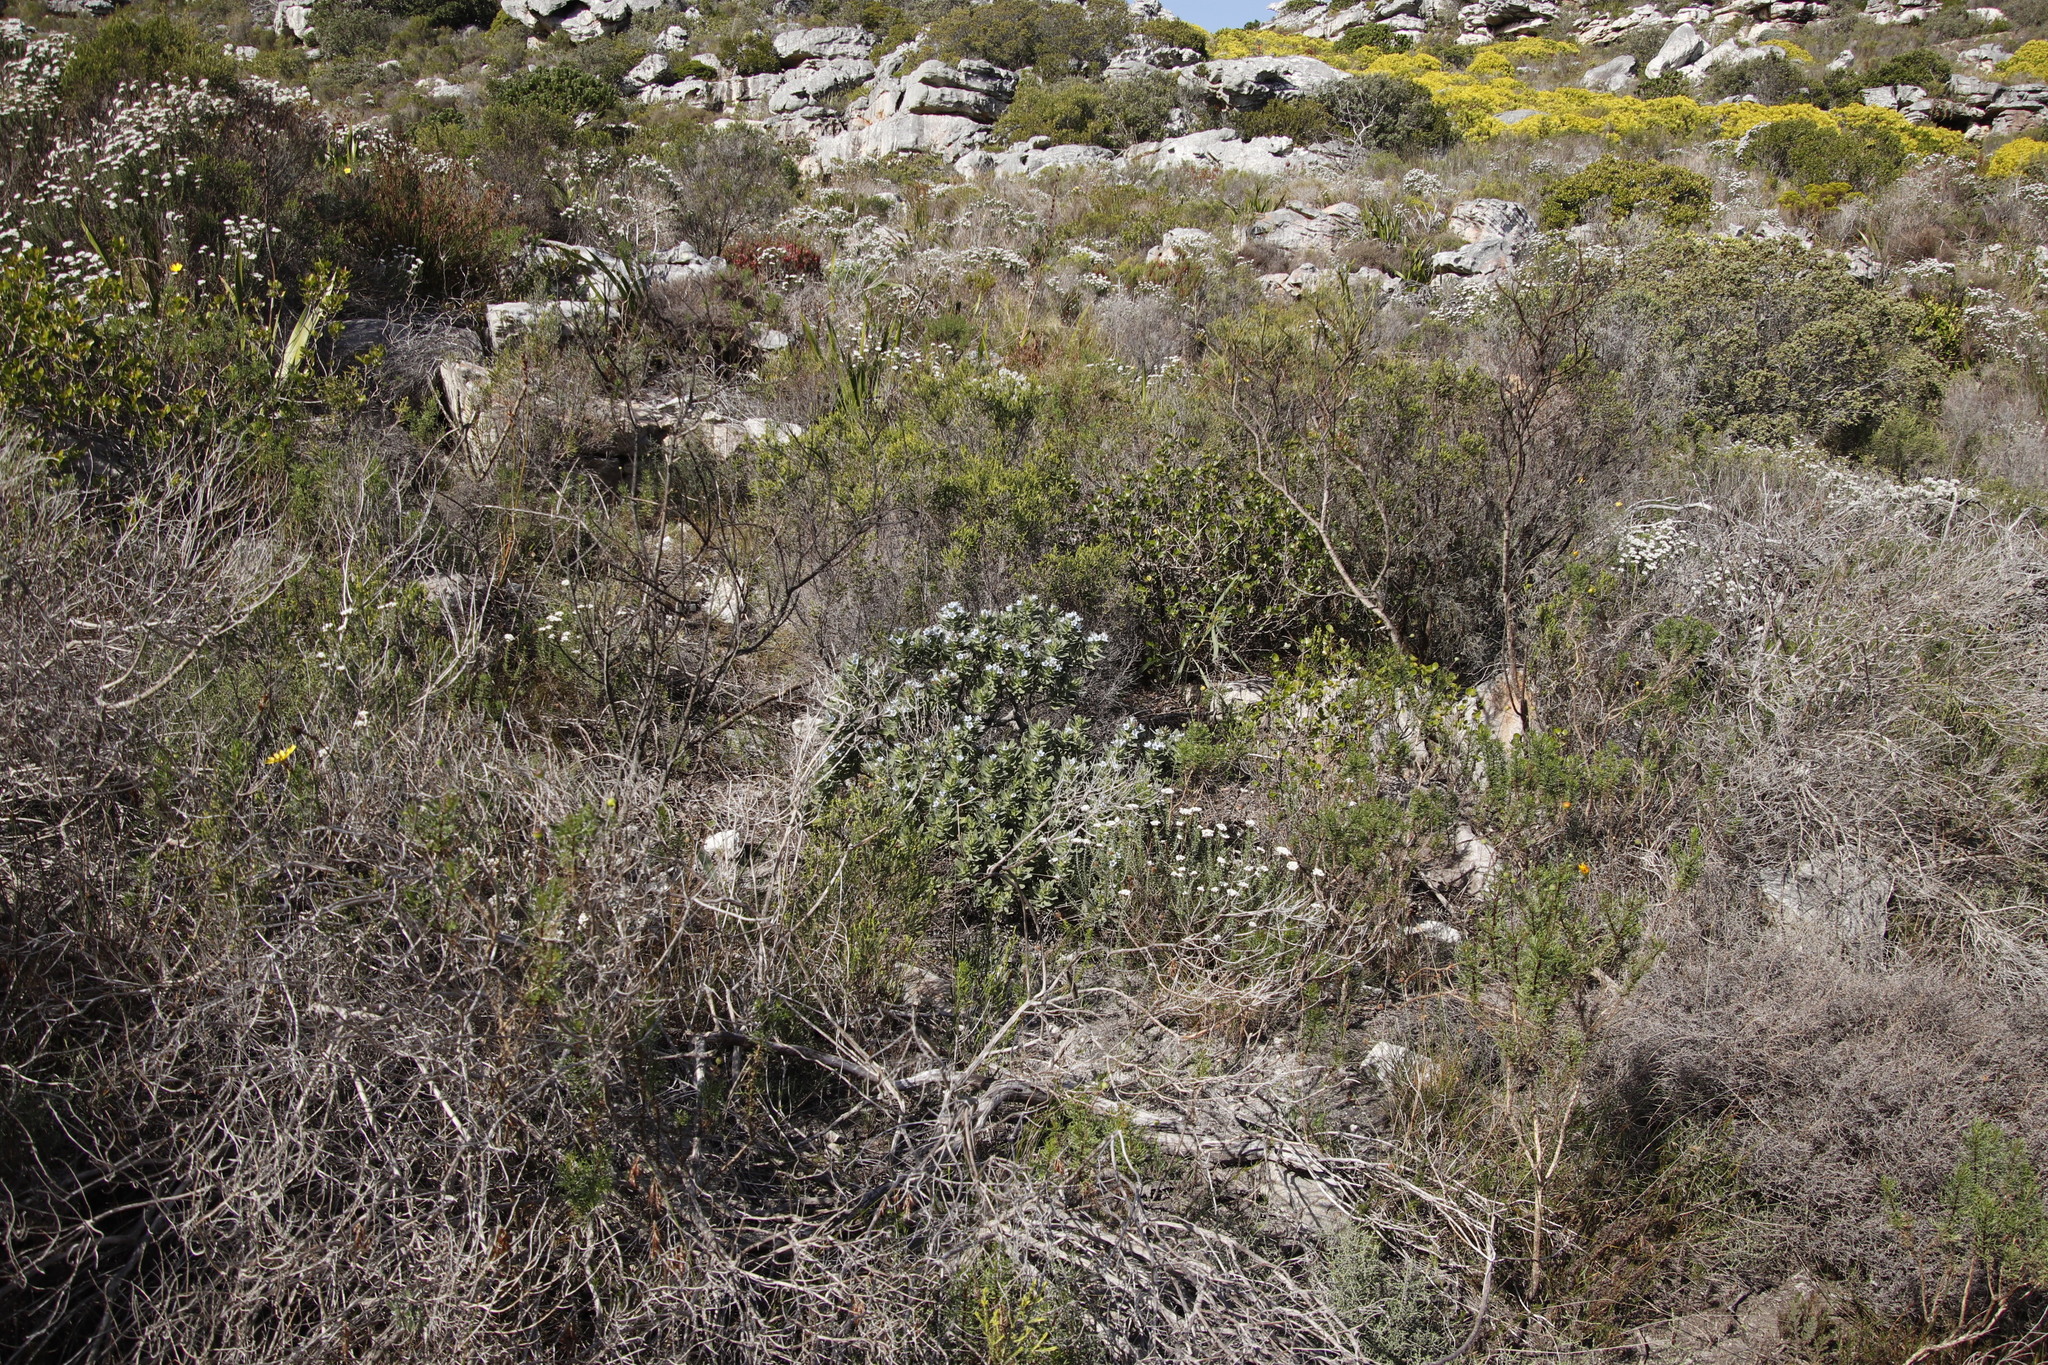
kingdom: Plantae
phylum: Tracheophyta
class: Magnoliopsida
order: Boraginales
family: Boraginaceae
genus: Lobostemon
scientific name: Lobostemon montanus
